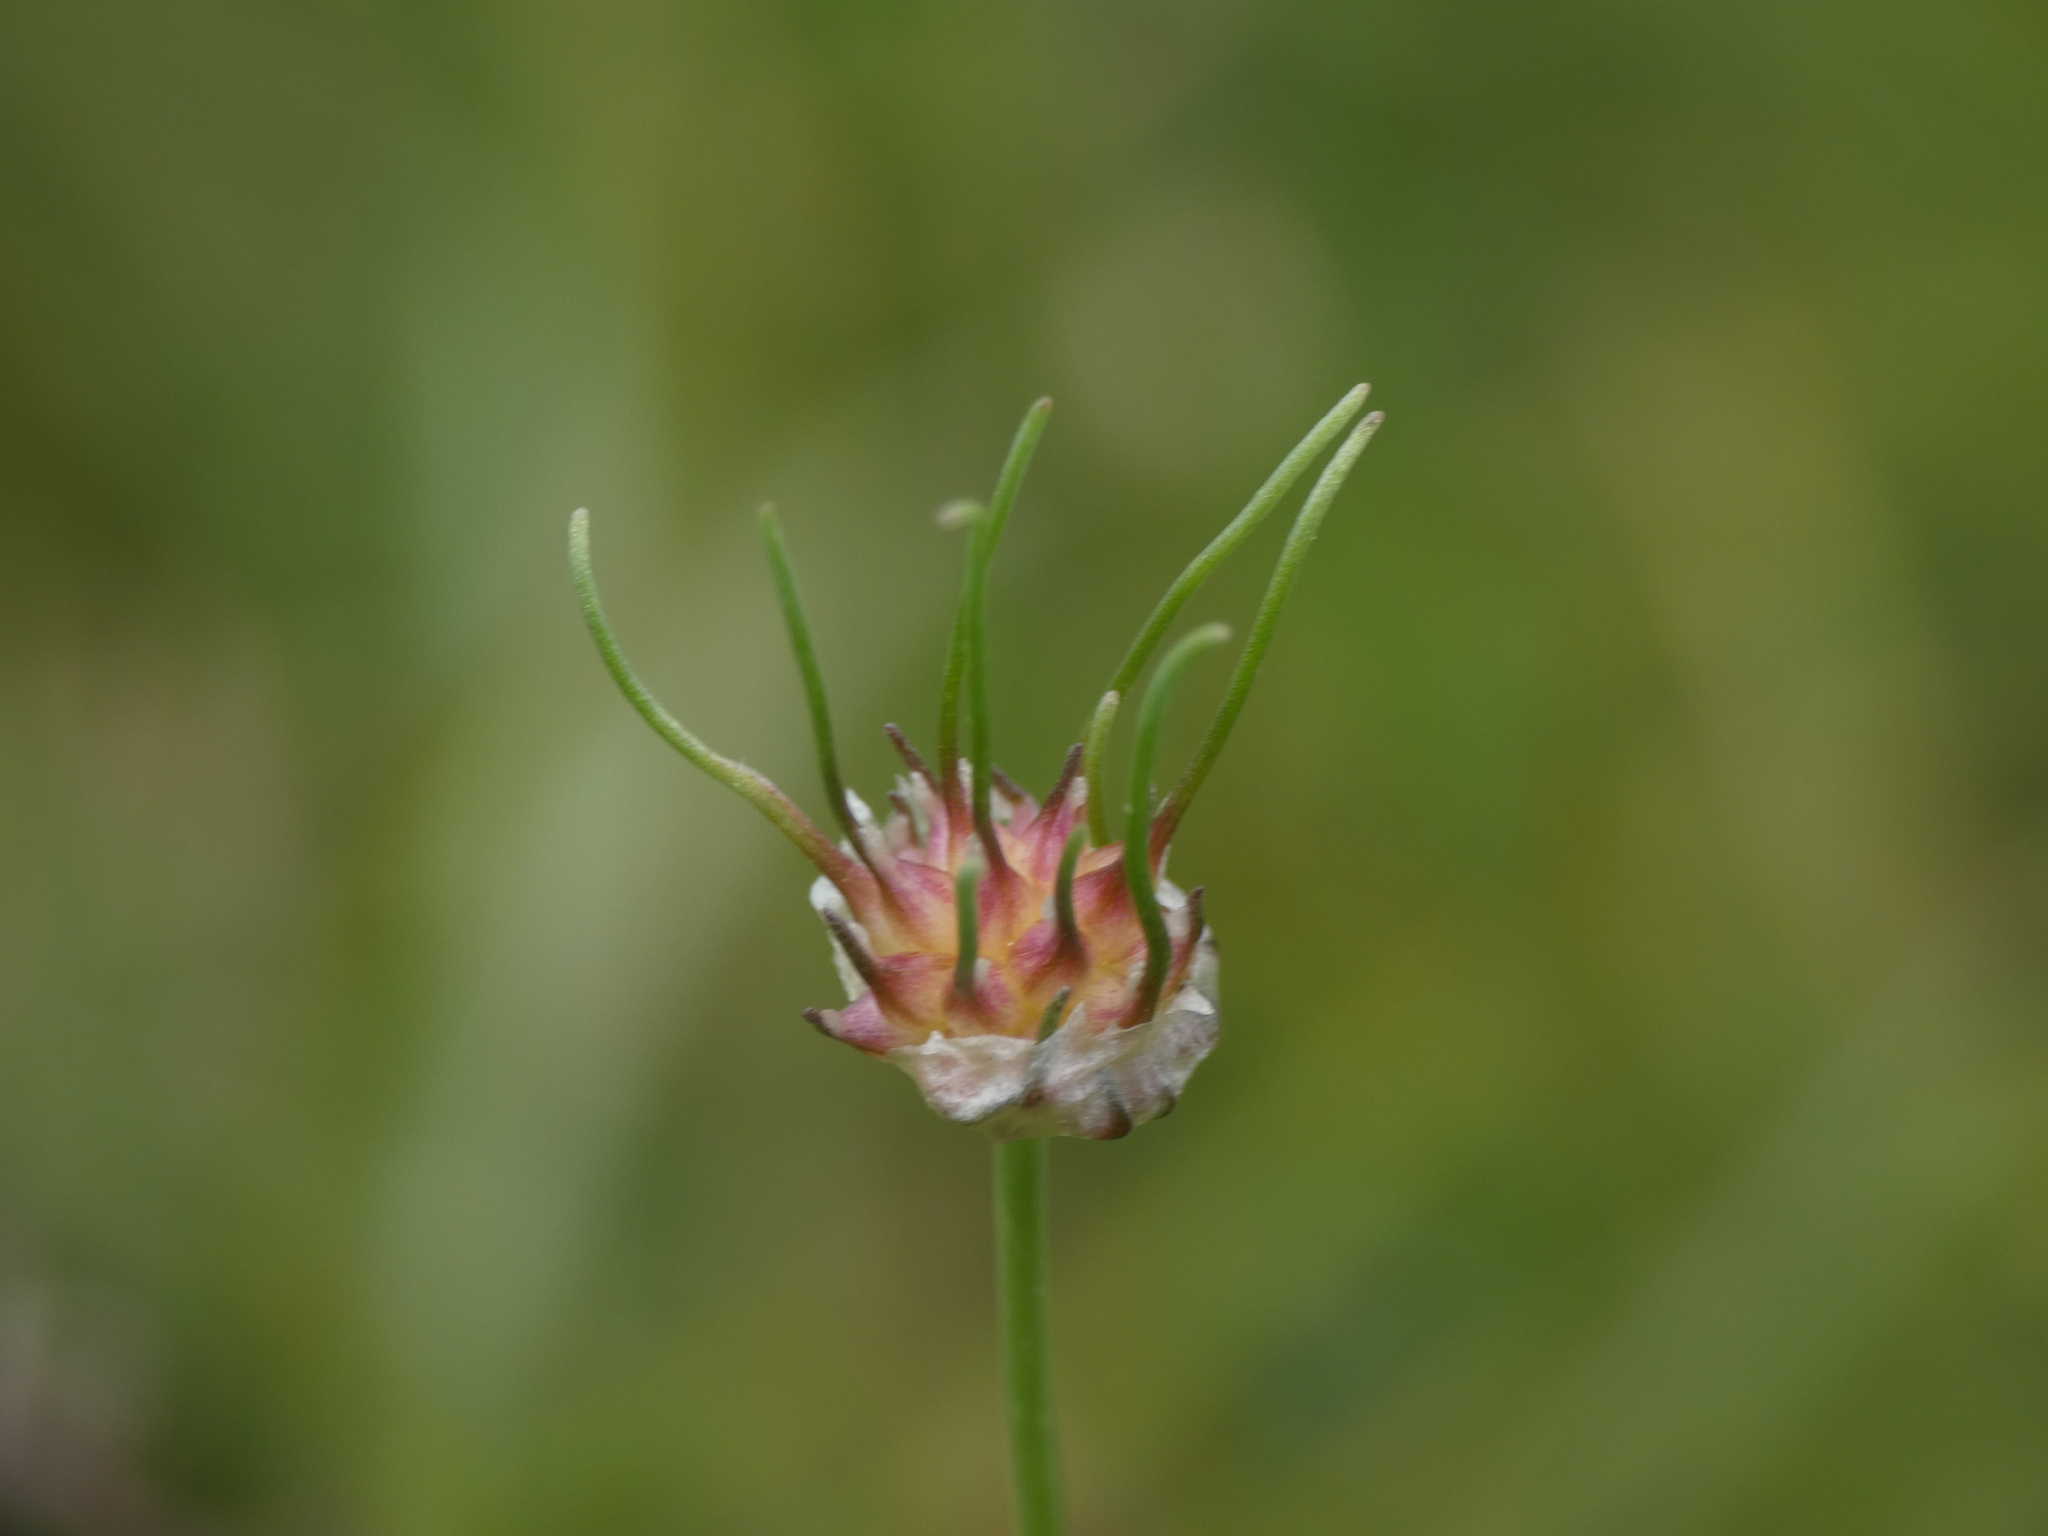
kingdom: Plantae
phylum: Tracheophyta
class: Liliopsida
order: Asparagales
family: Amaryllidaceae
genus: Allium
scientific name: Allium vineale
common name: Crow garlic
